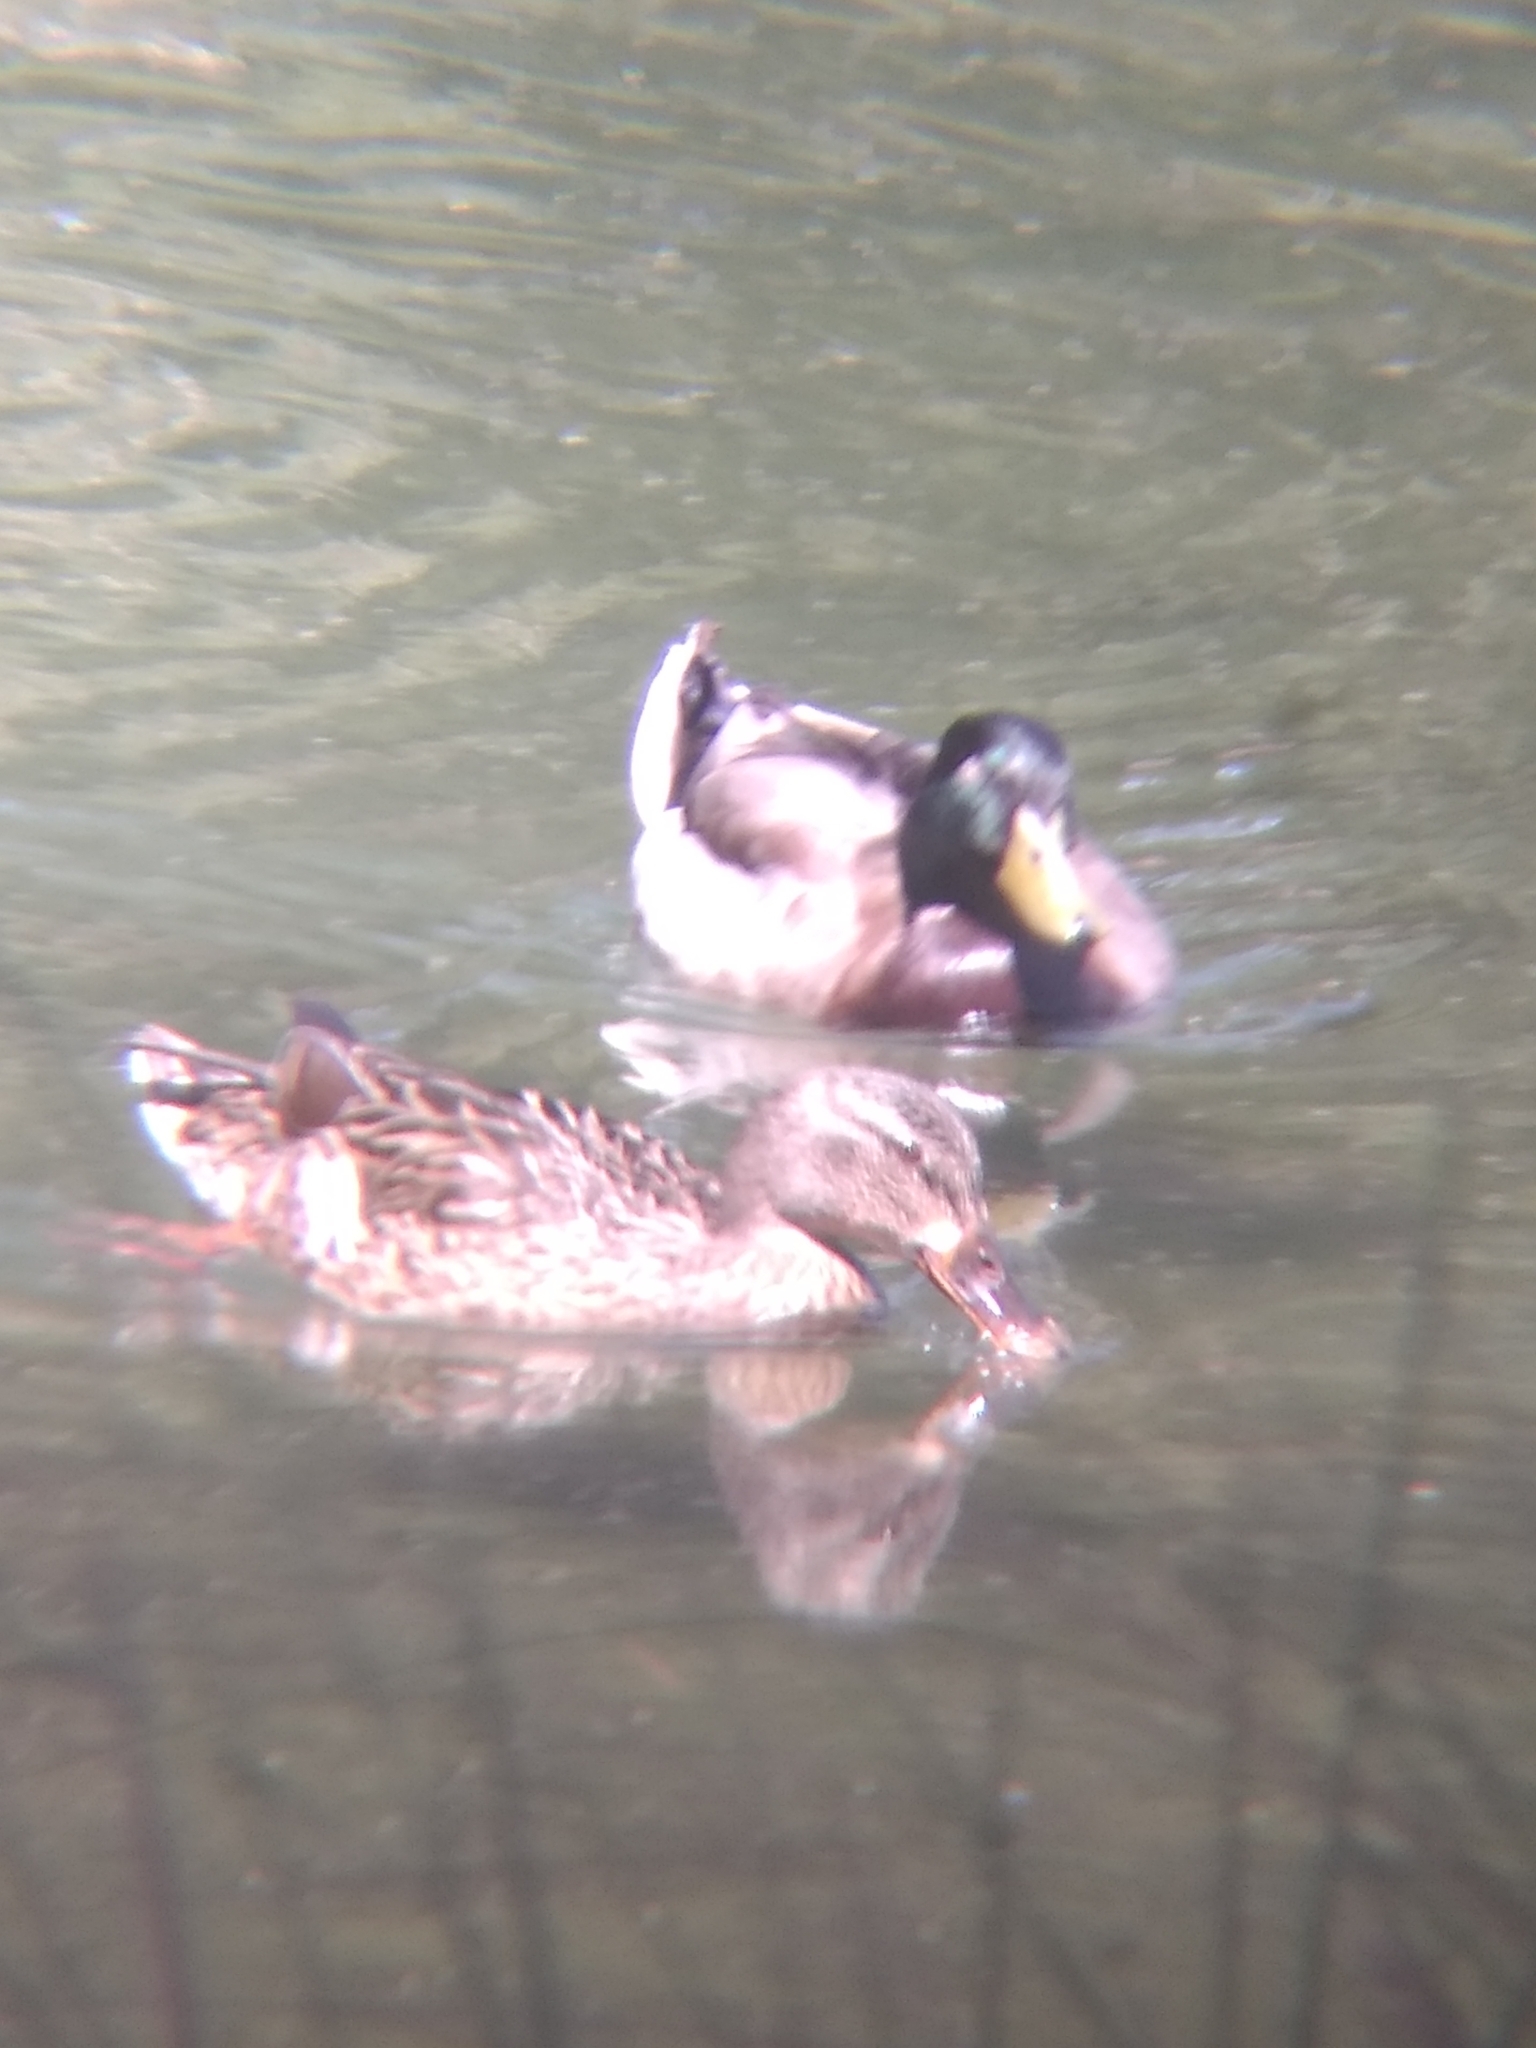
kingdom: Animalia
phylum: Chordata
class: Aves
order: Anseriformes
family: Anatidae
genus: Anas
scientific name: Anas platyrhynchos
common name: Mallard
